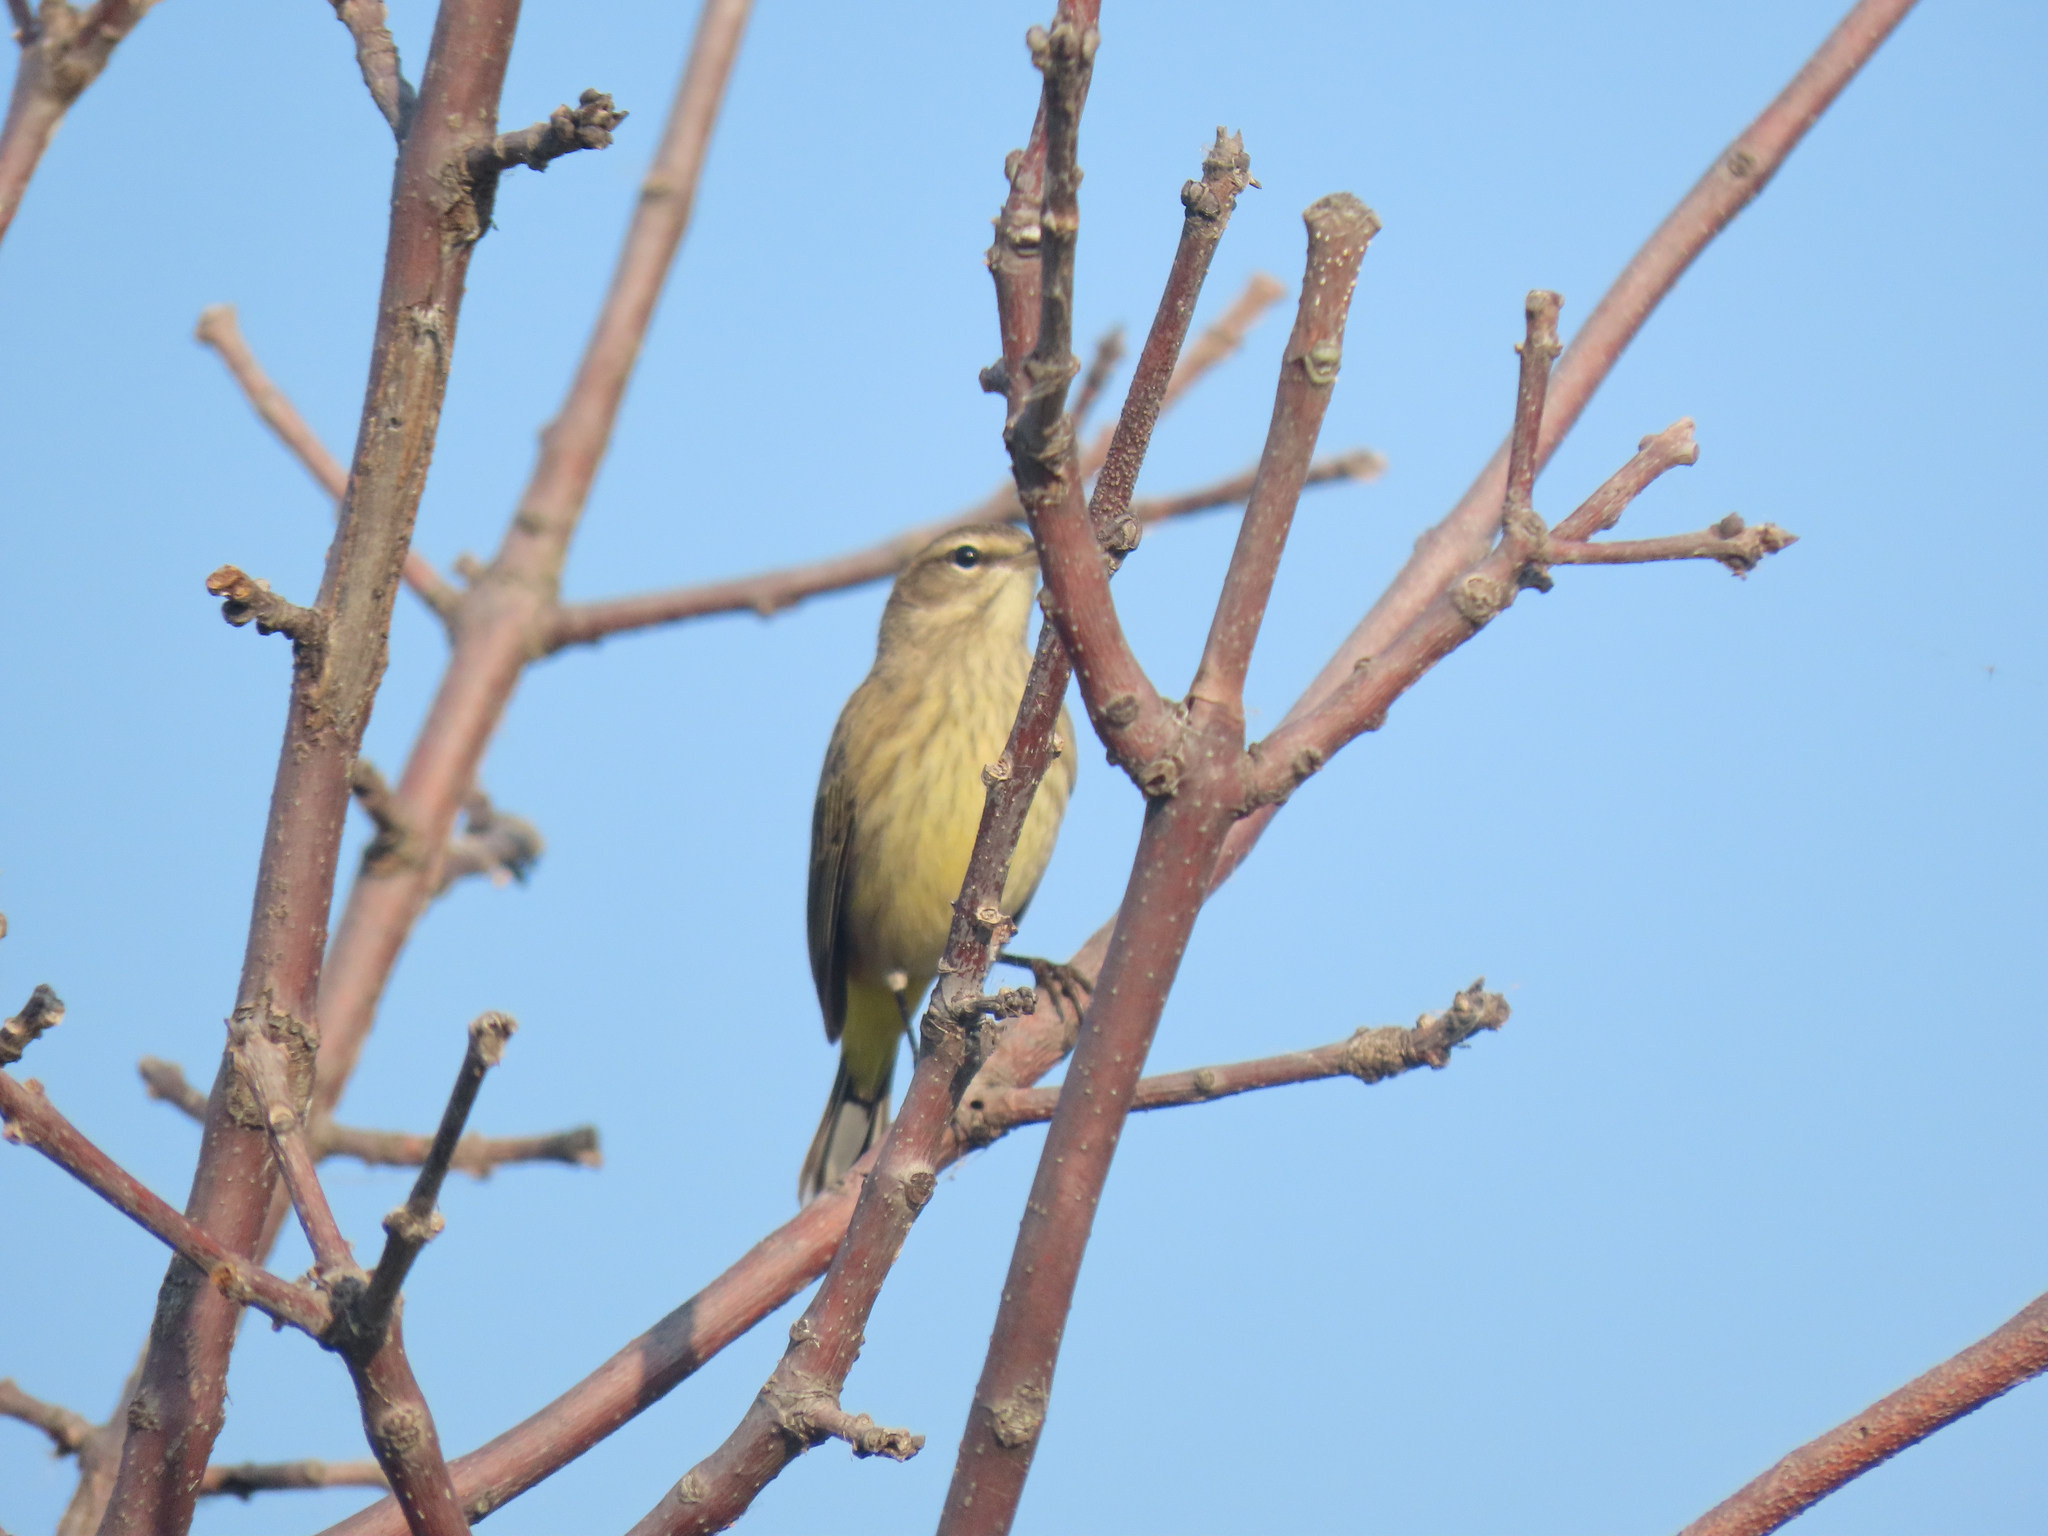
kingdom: Animalia
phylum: Chordata
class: Aves
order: Passeriformes
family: Parulidae
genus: Setophaga
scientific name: Setophaga palmarum
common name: Palm warbler
